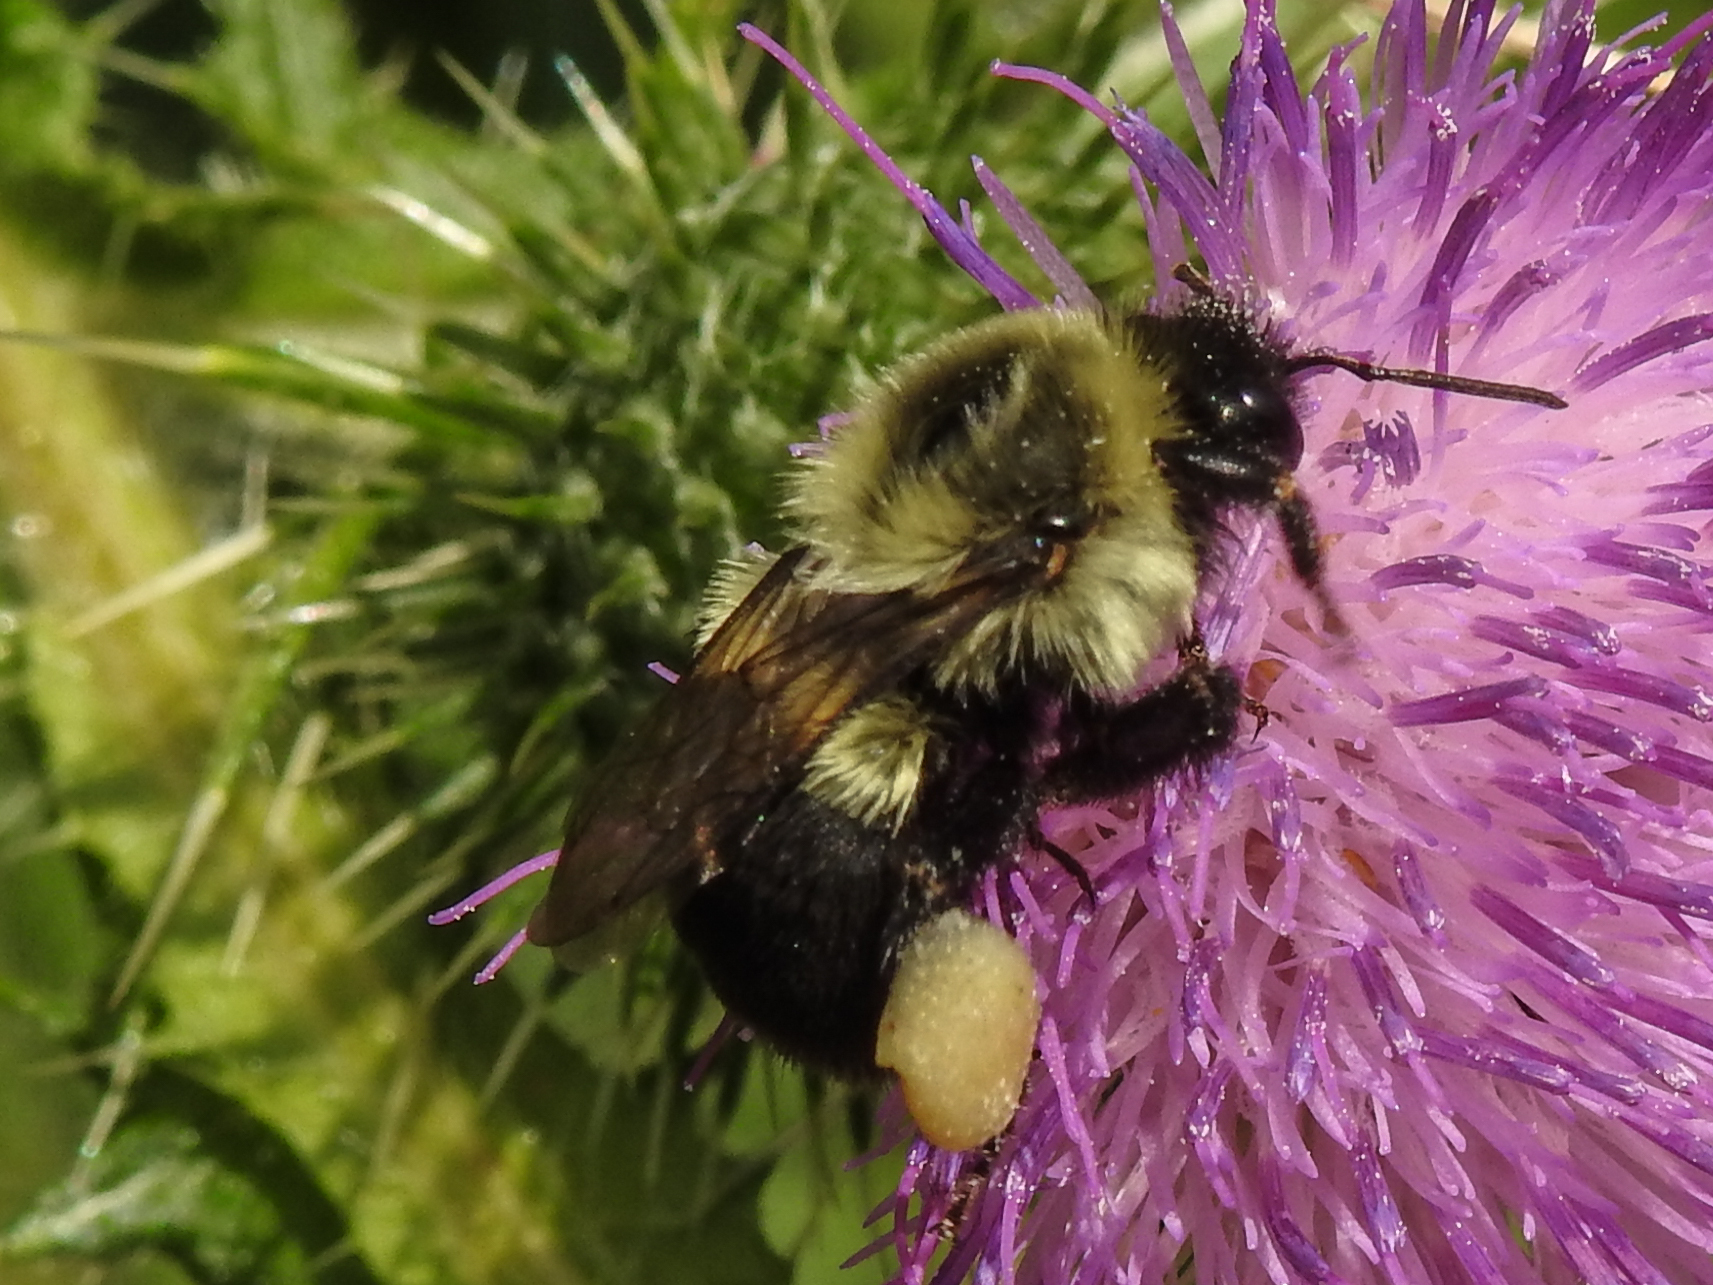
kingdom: Animalia
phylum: Arthropoda
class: Insecta
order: Hymenoptera
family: Apidae
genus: Bombus
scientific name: Bombus impatiens
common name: Common eastern bumble bee
